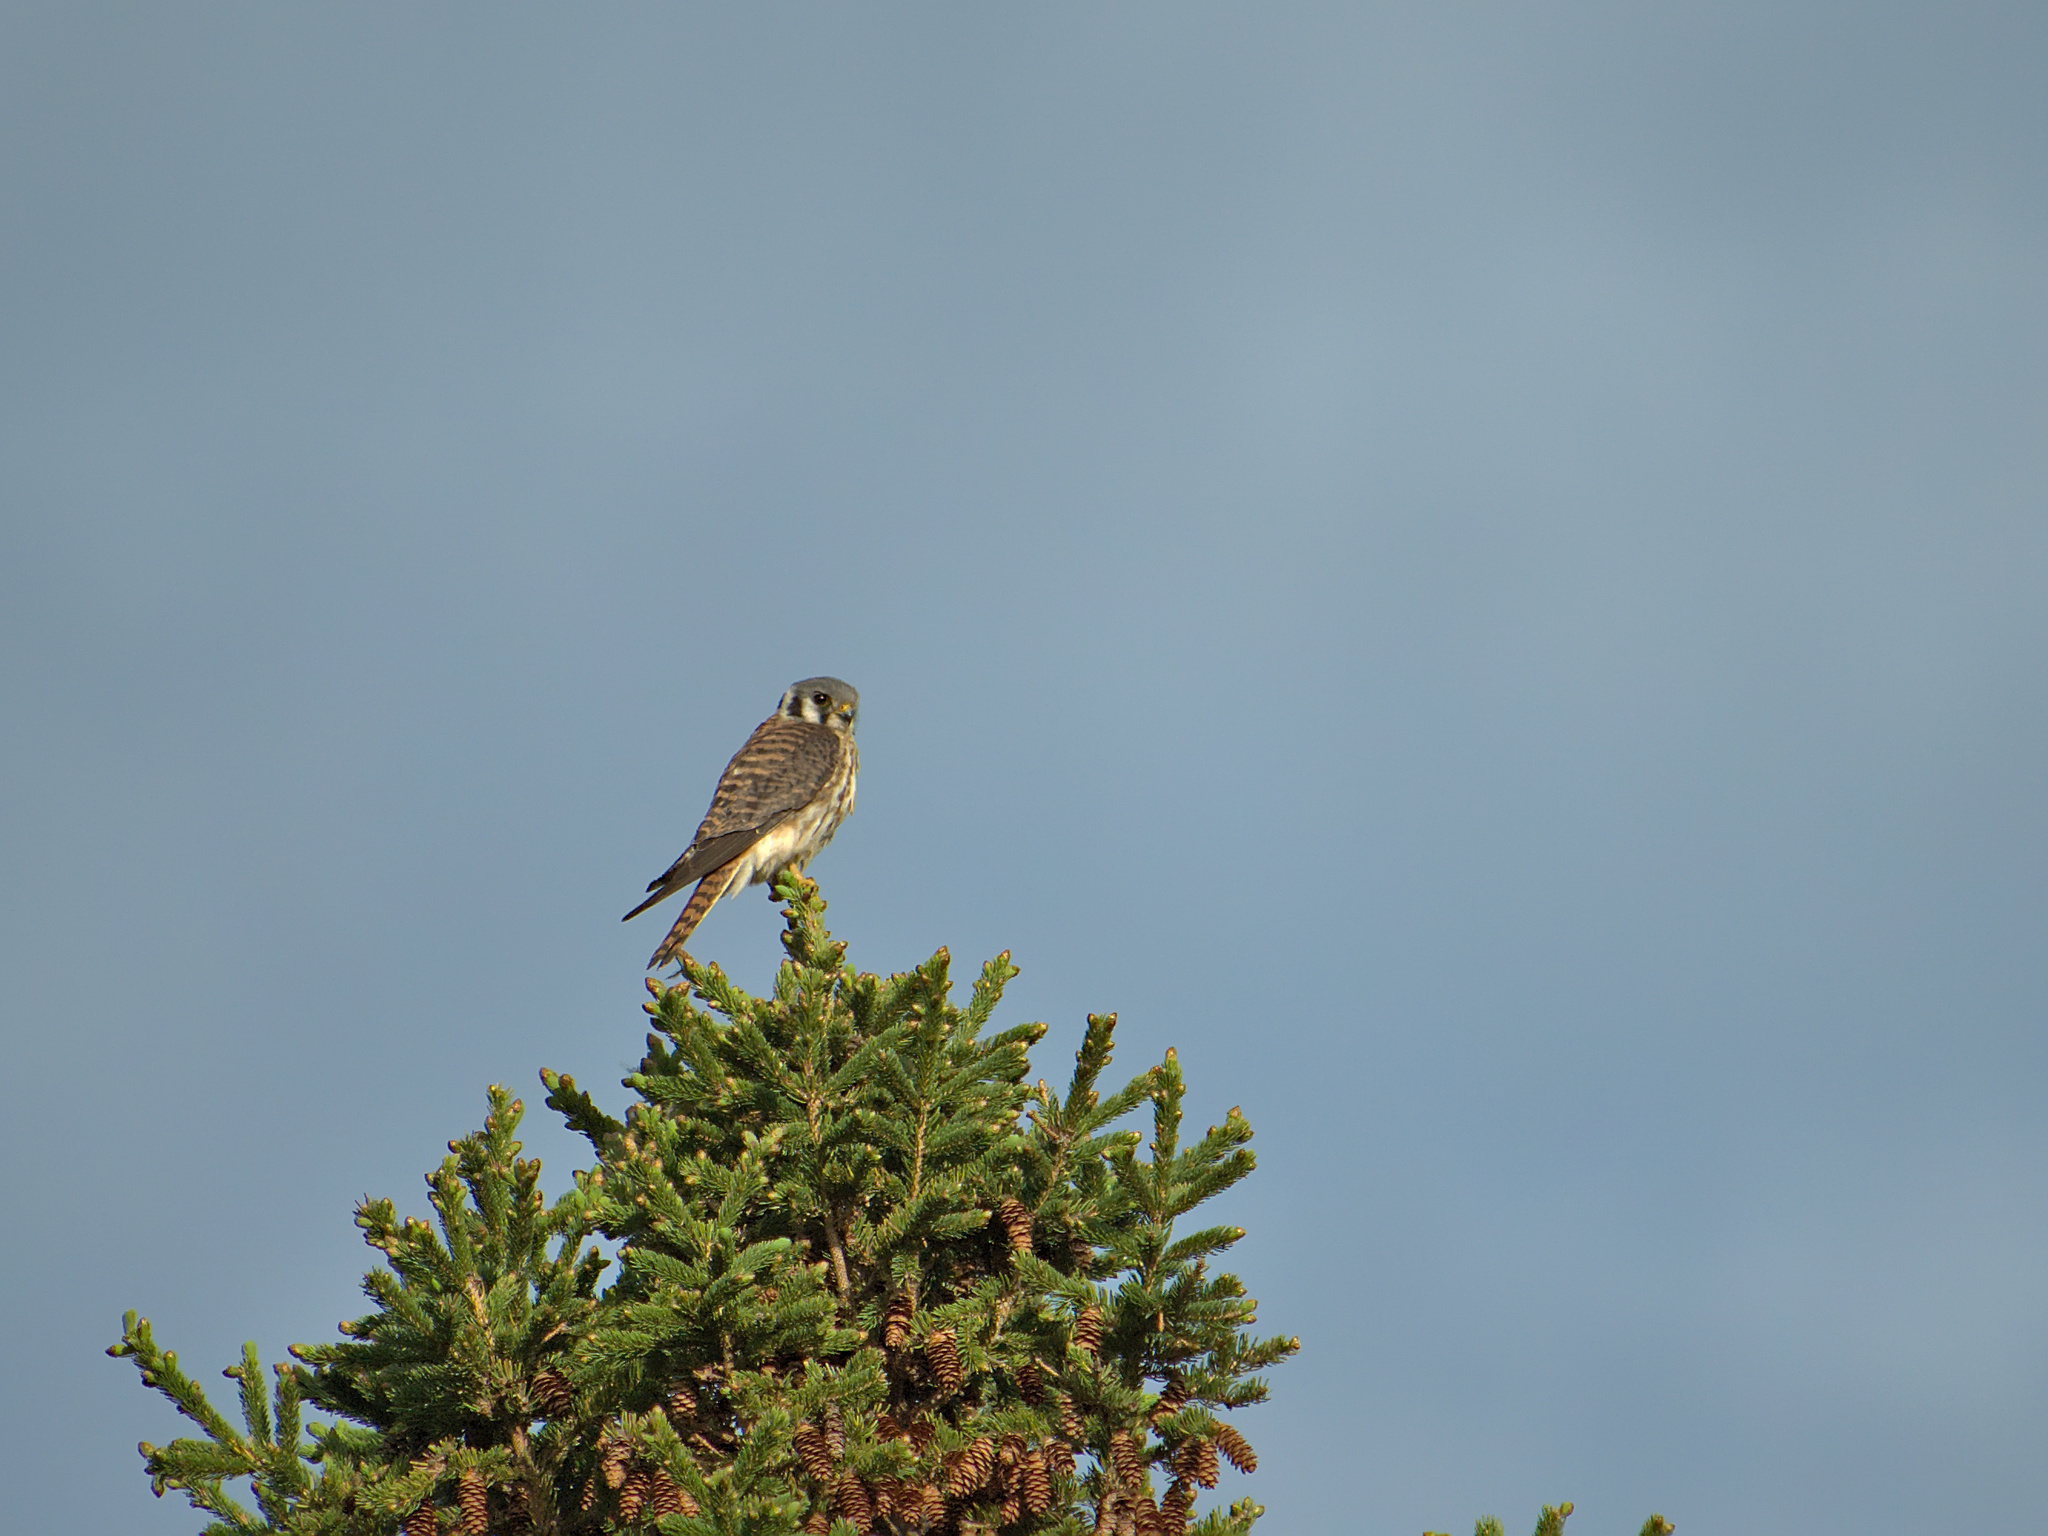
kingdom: Animalia
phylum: Chordata
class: Aves
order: Falconiformes
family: Falconidae
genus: Falco
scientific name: Falco sparverius
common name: American kestrel
